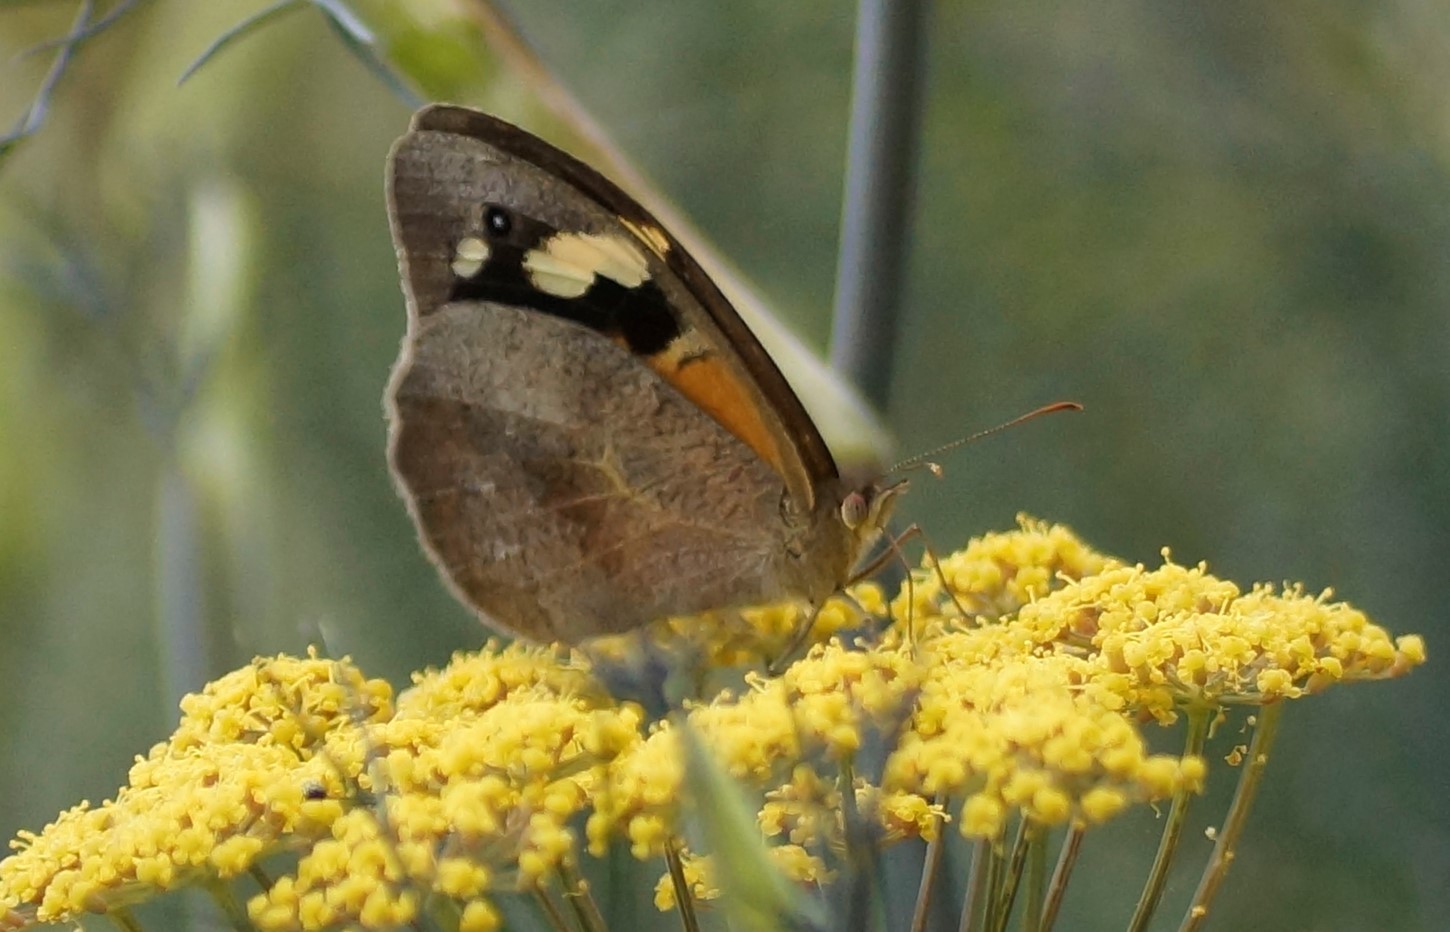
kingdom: Animalia
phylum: Arthropoda
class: Insecta
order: Lepidoptera
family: Nymphalidae
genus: Heteronympha
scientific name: Heteronympha merope
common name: Common brown
